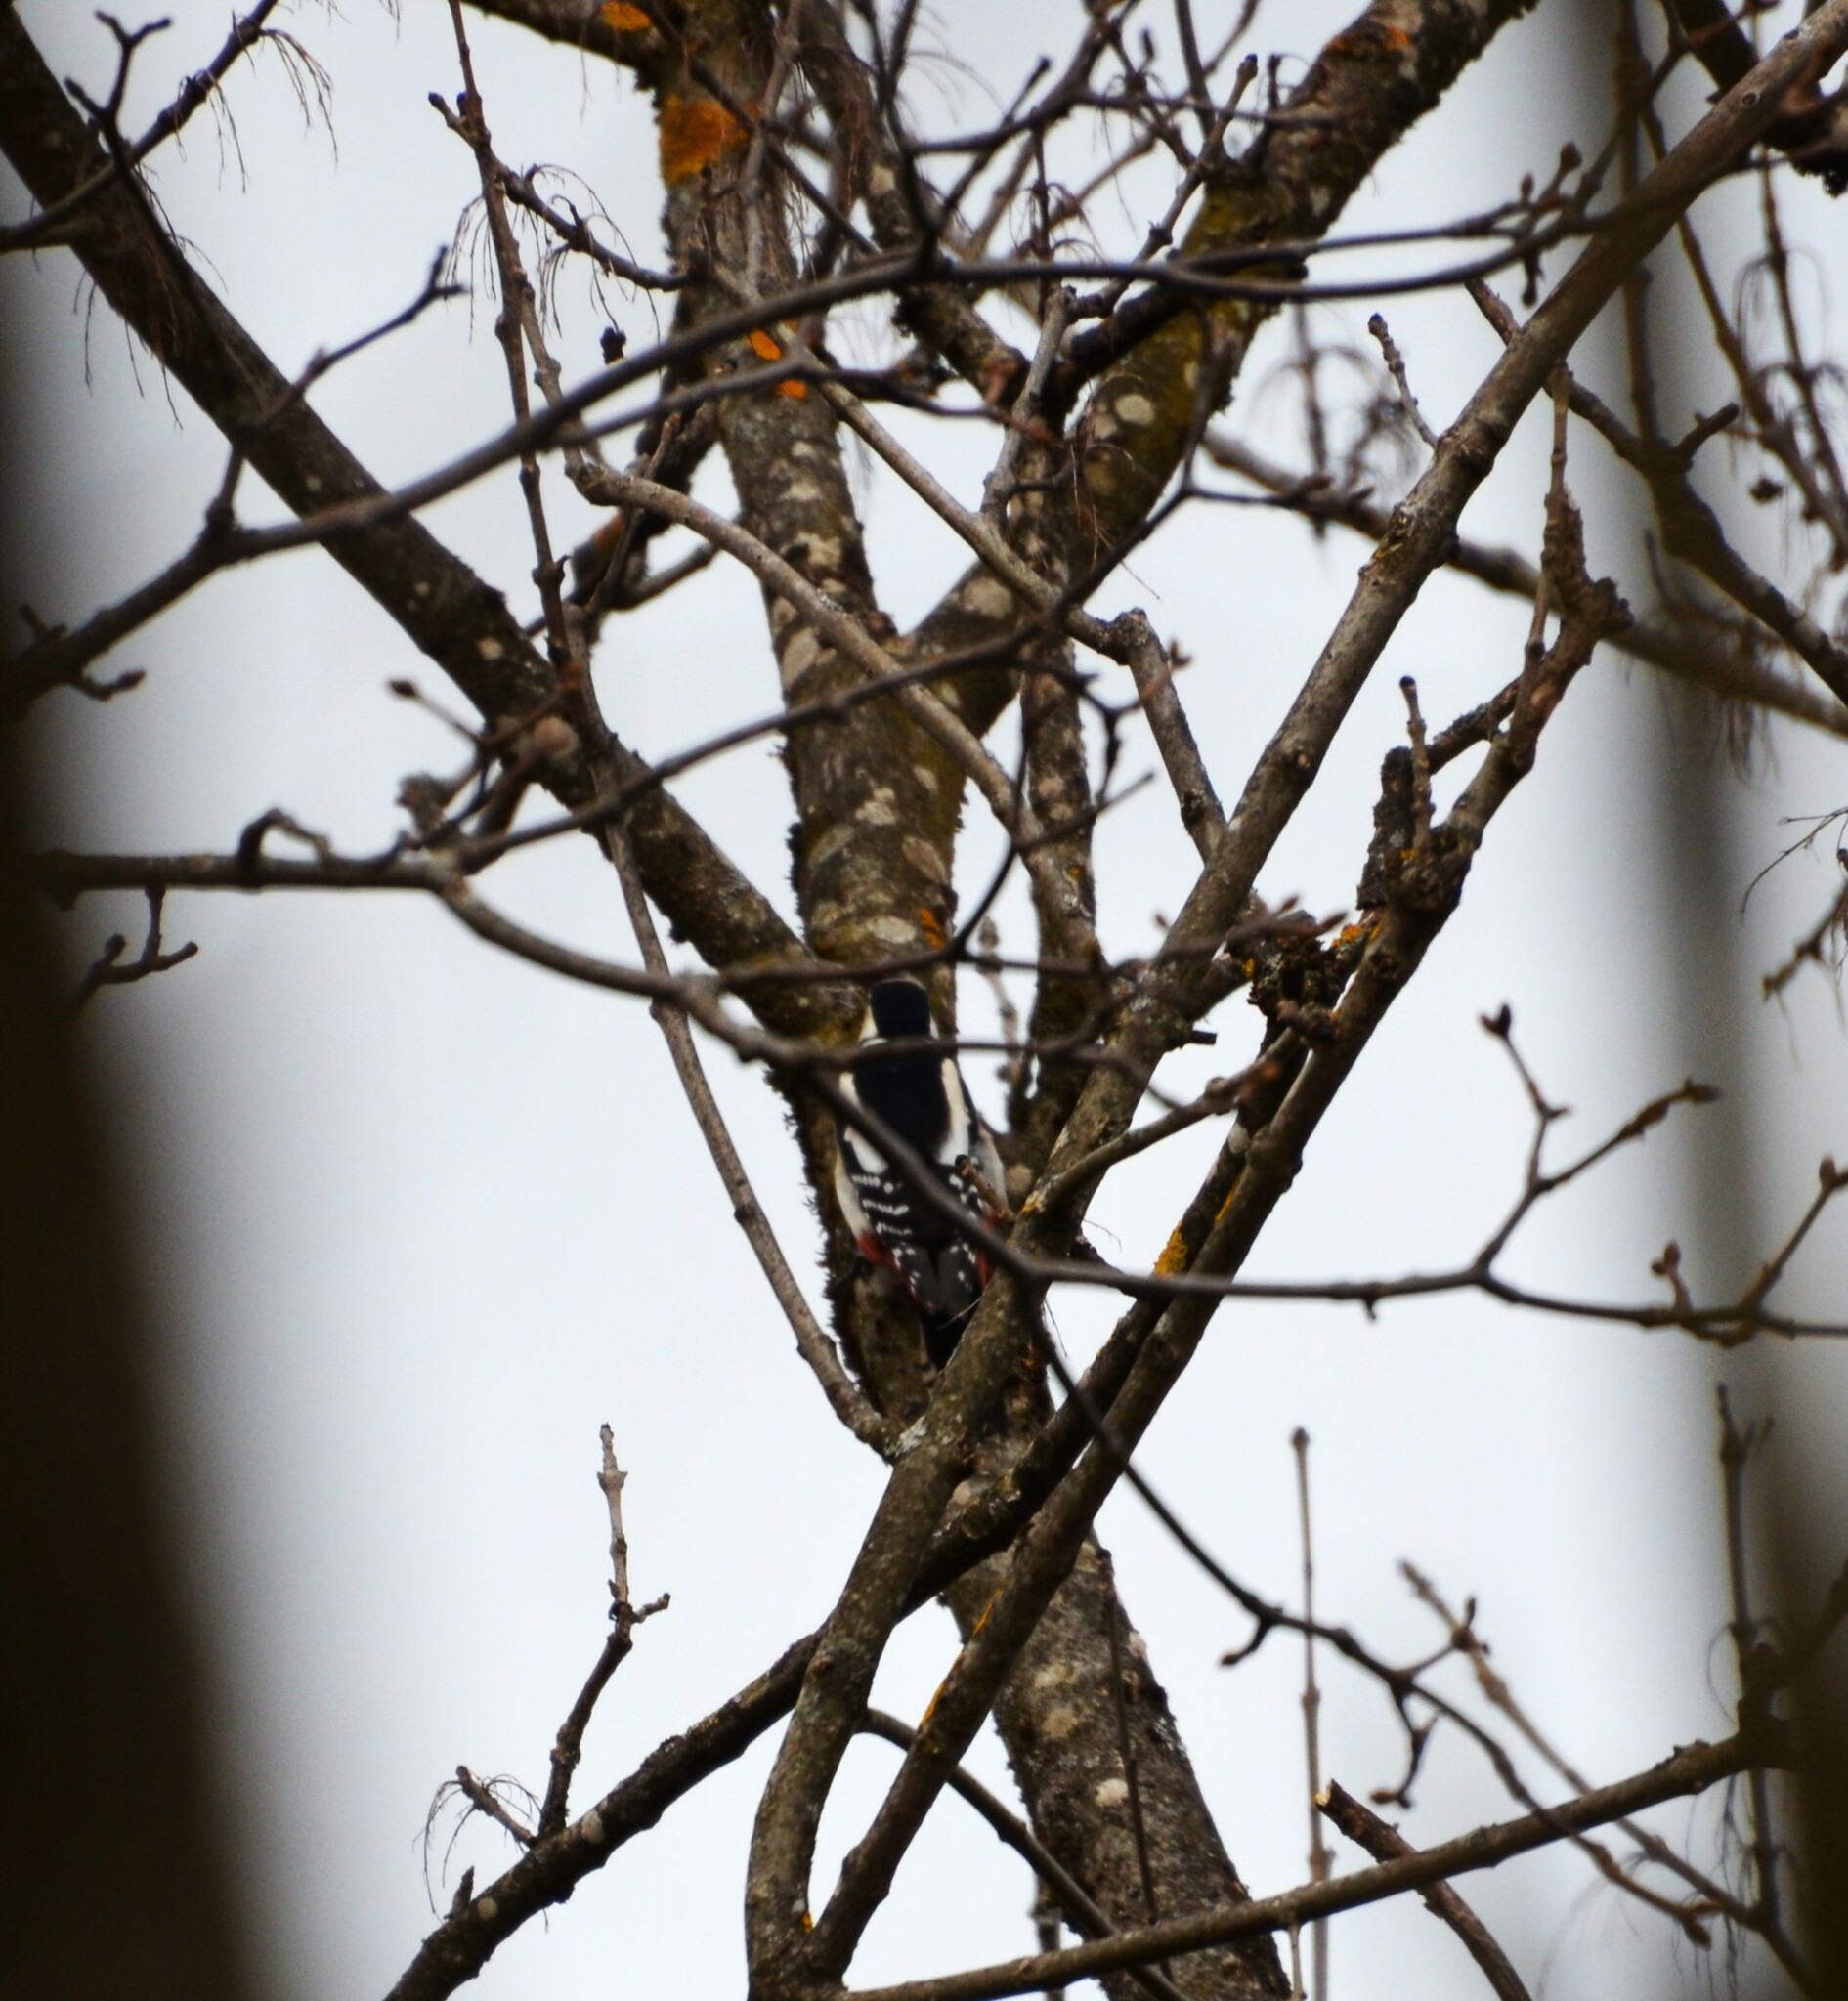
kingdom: Animalia
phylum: Chordata
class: Aves
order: Piciformes
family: Picidae
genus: Dendrocopos
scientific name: Dendrocopos major
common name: Great spotted woodpecker
